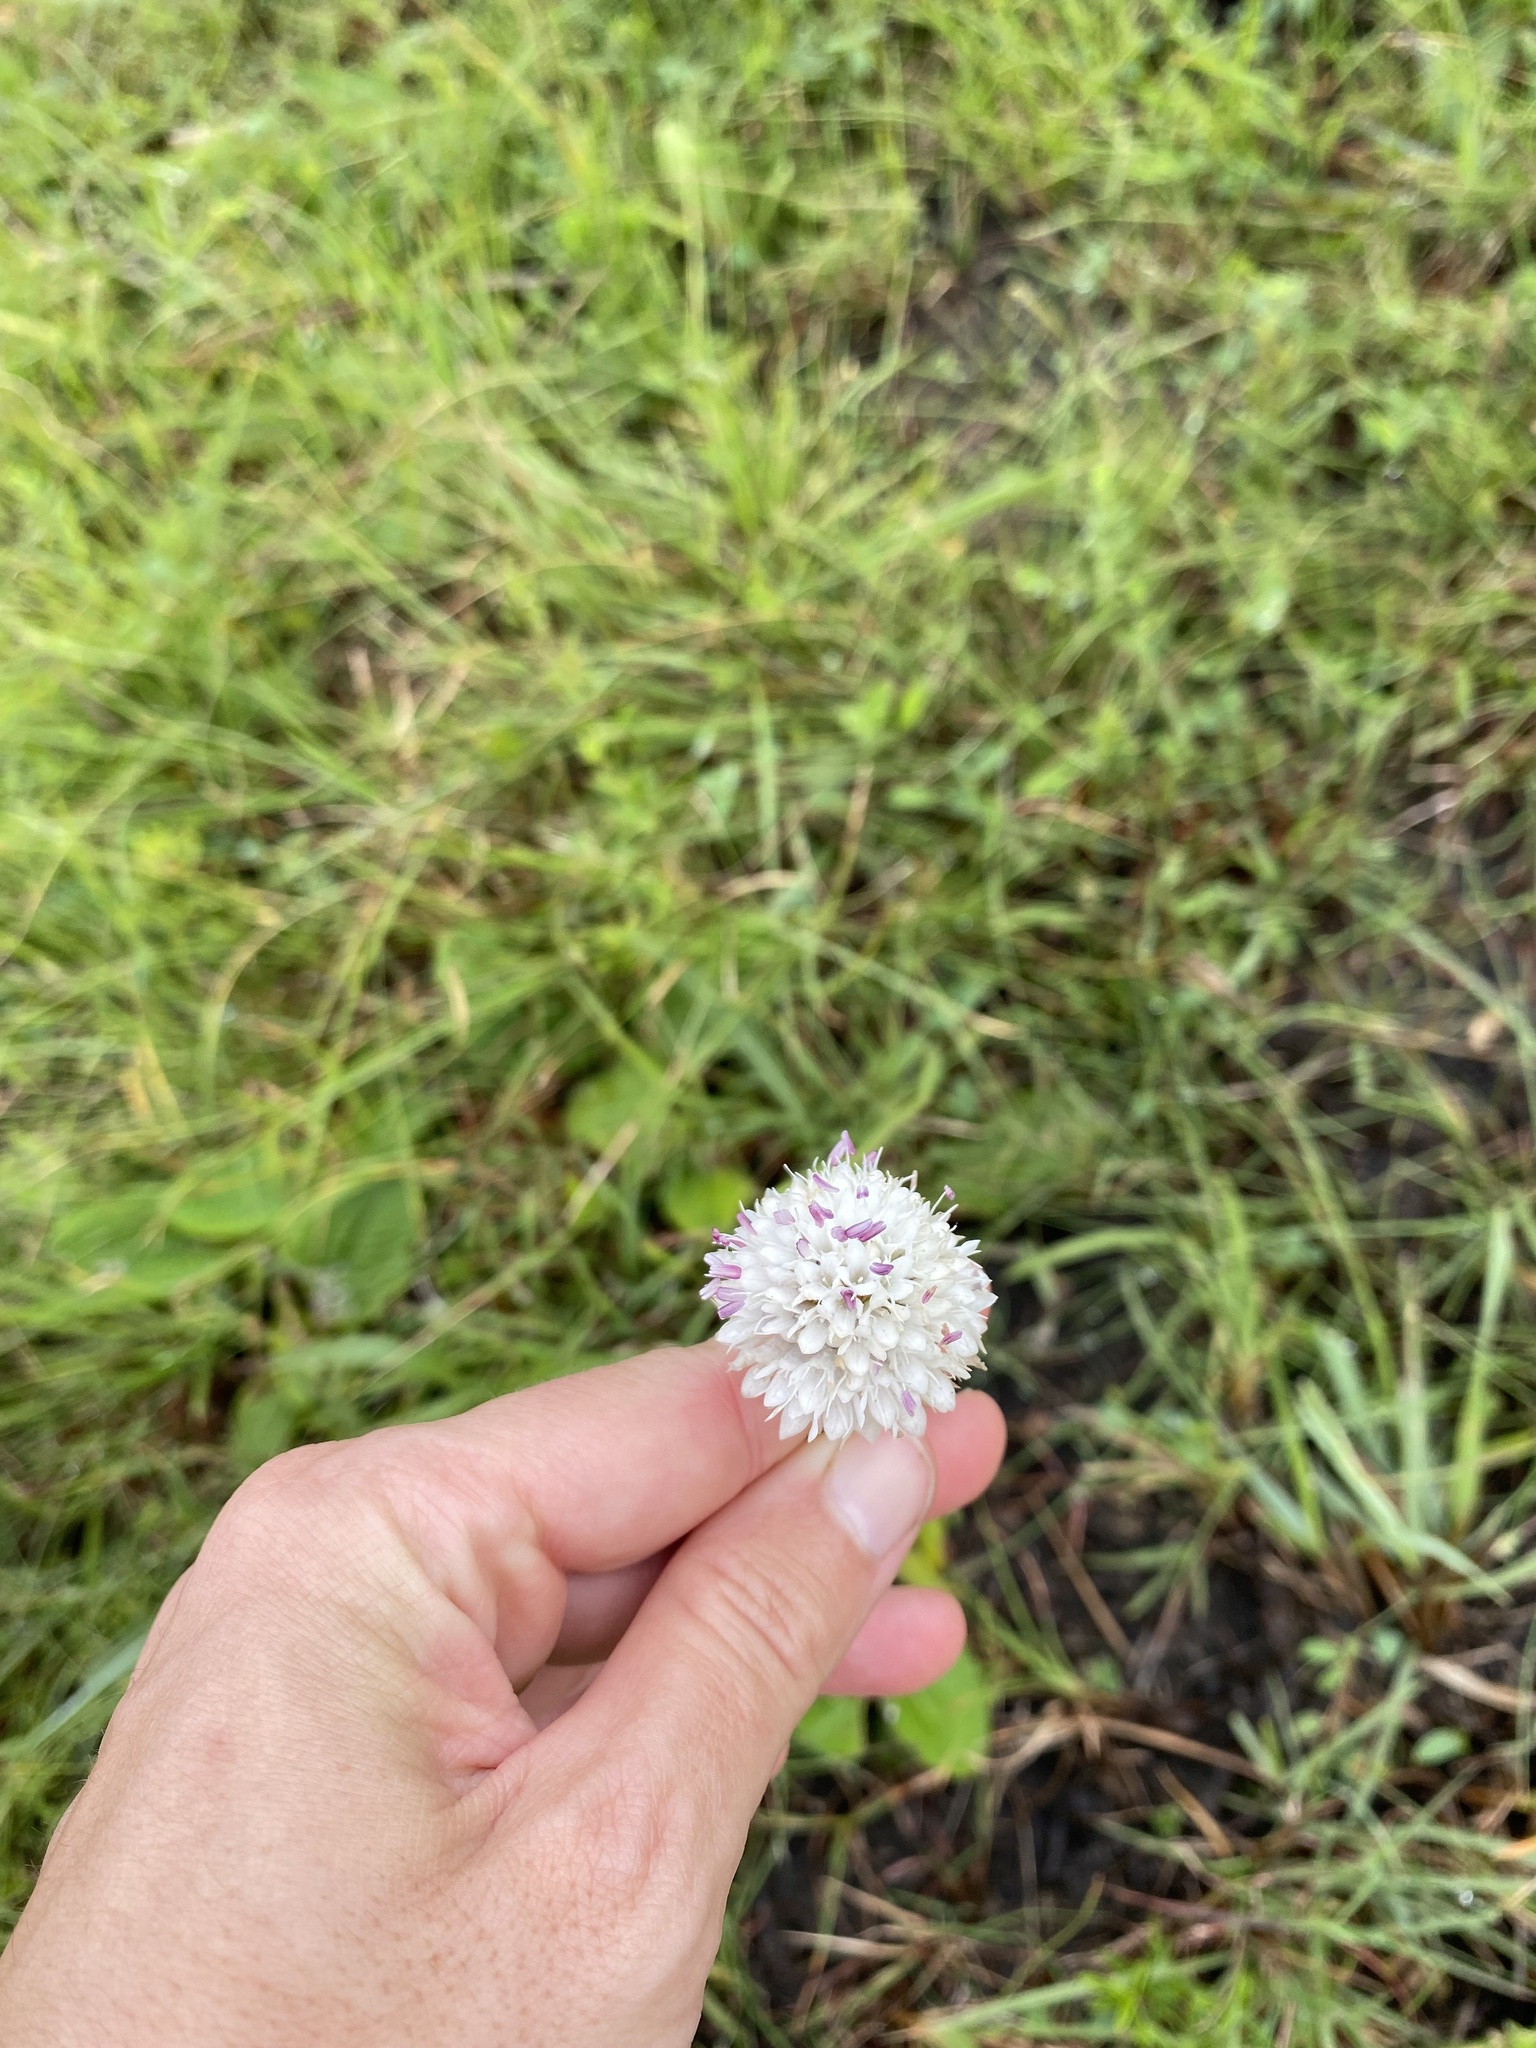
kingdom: Plantae
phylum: Tracheophyta
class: Magnoliopsida
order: Dipsacales
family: Caprifoliaceae
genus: Scabiosa
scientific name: Scabiosa columbaria
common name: Small scabious
